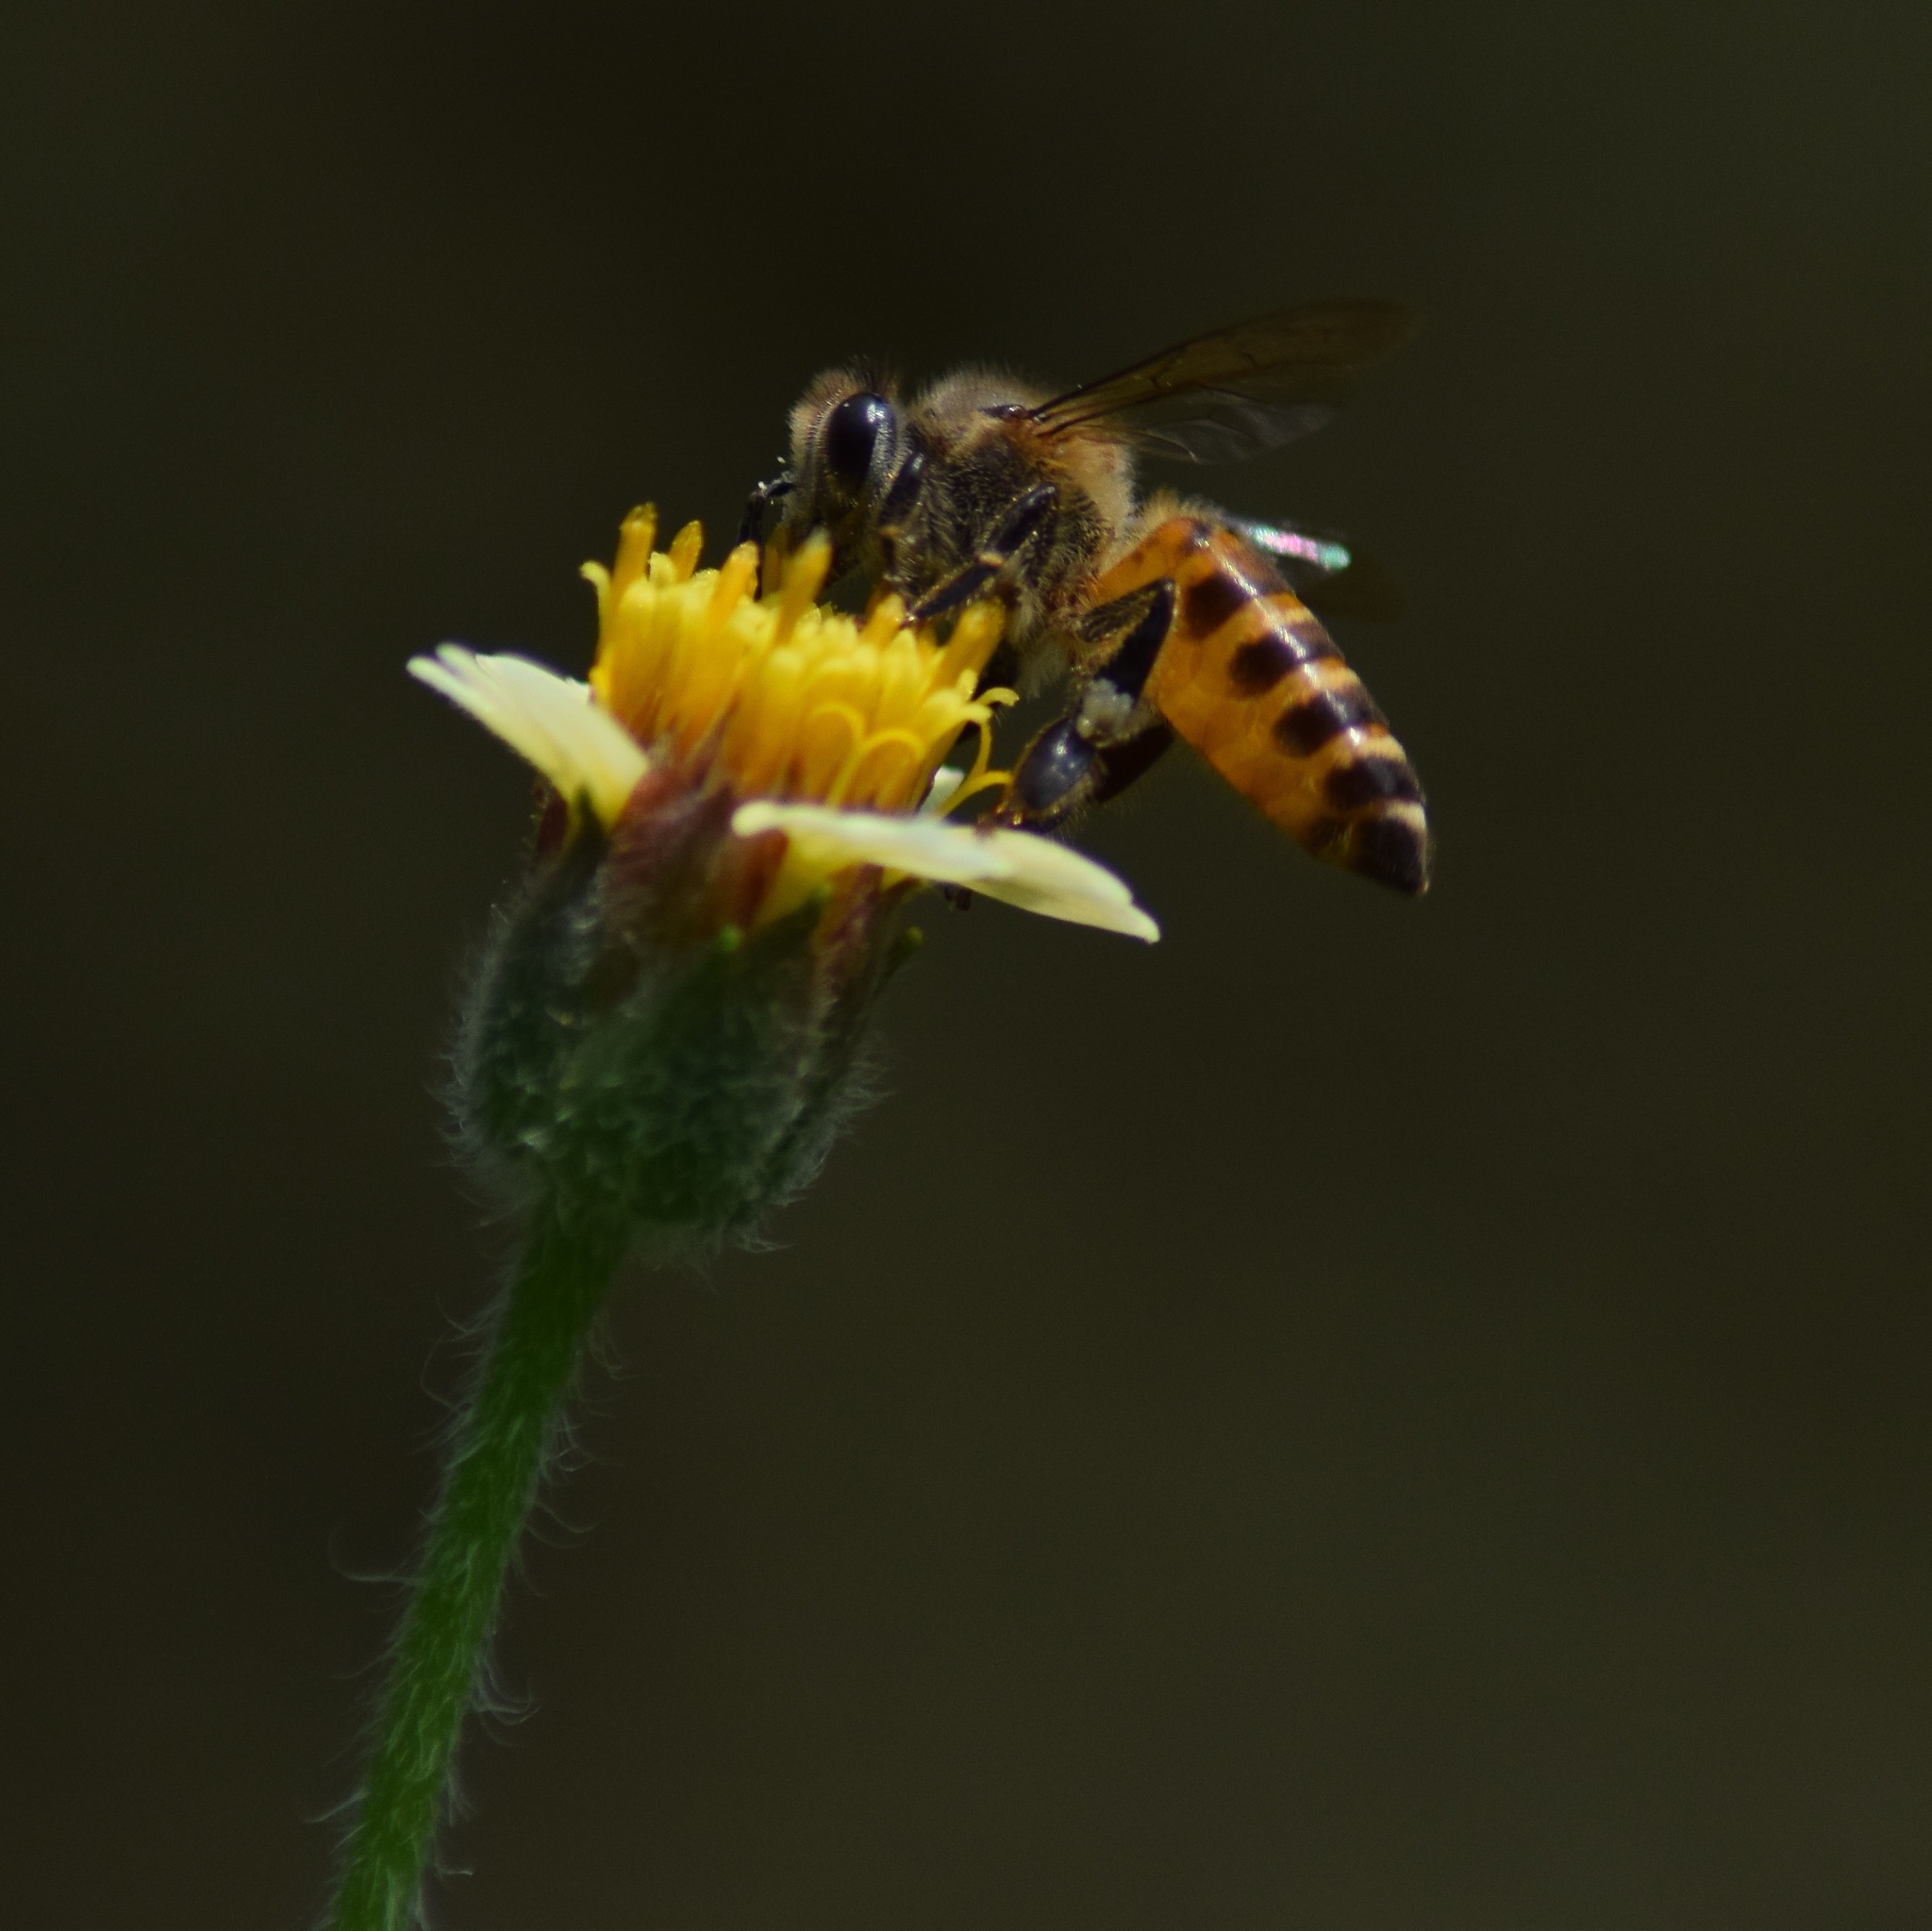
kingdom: Animalia
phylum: Arthropoda
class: Insecta
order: Hymenoptera
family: Apidae
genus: Apis
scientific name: Apis cerana
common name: Honey bee
